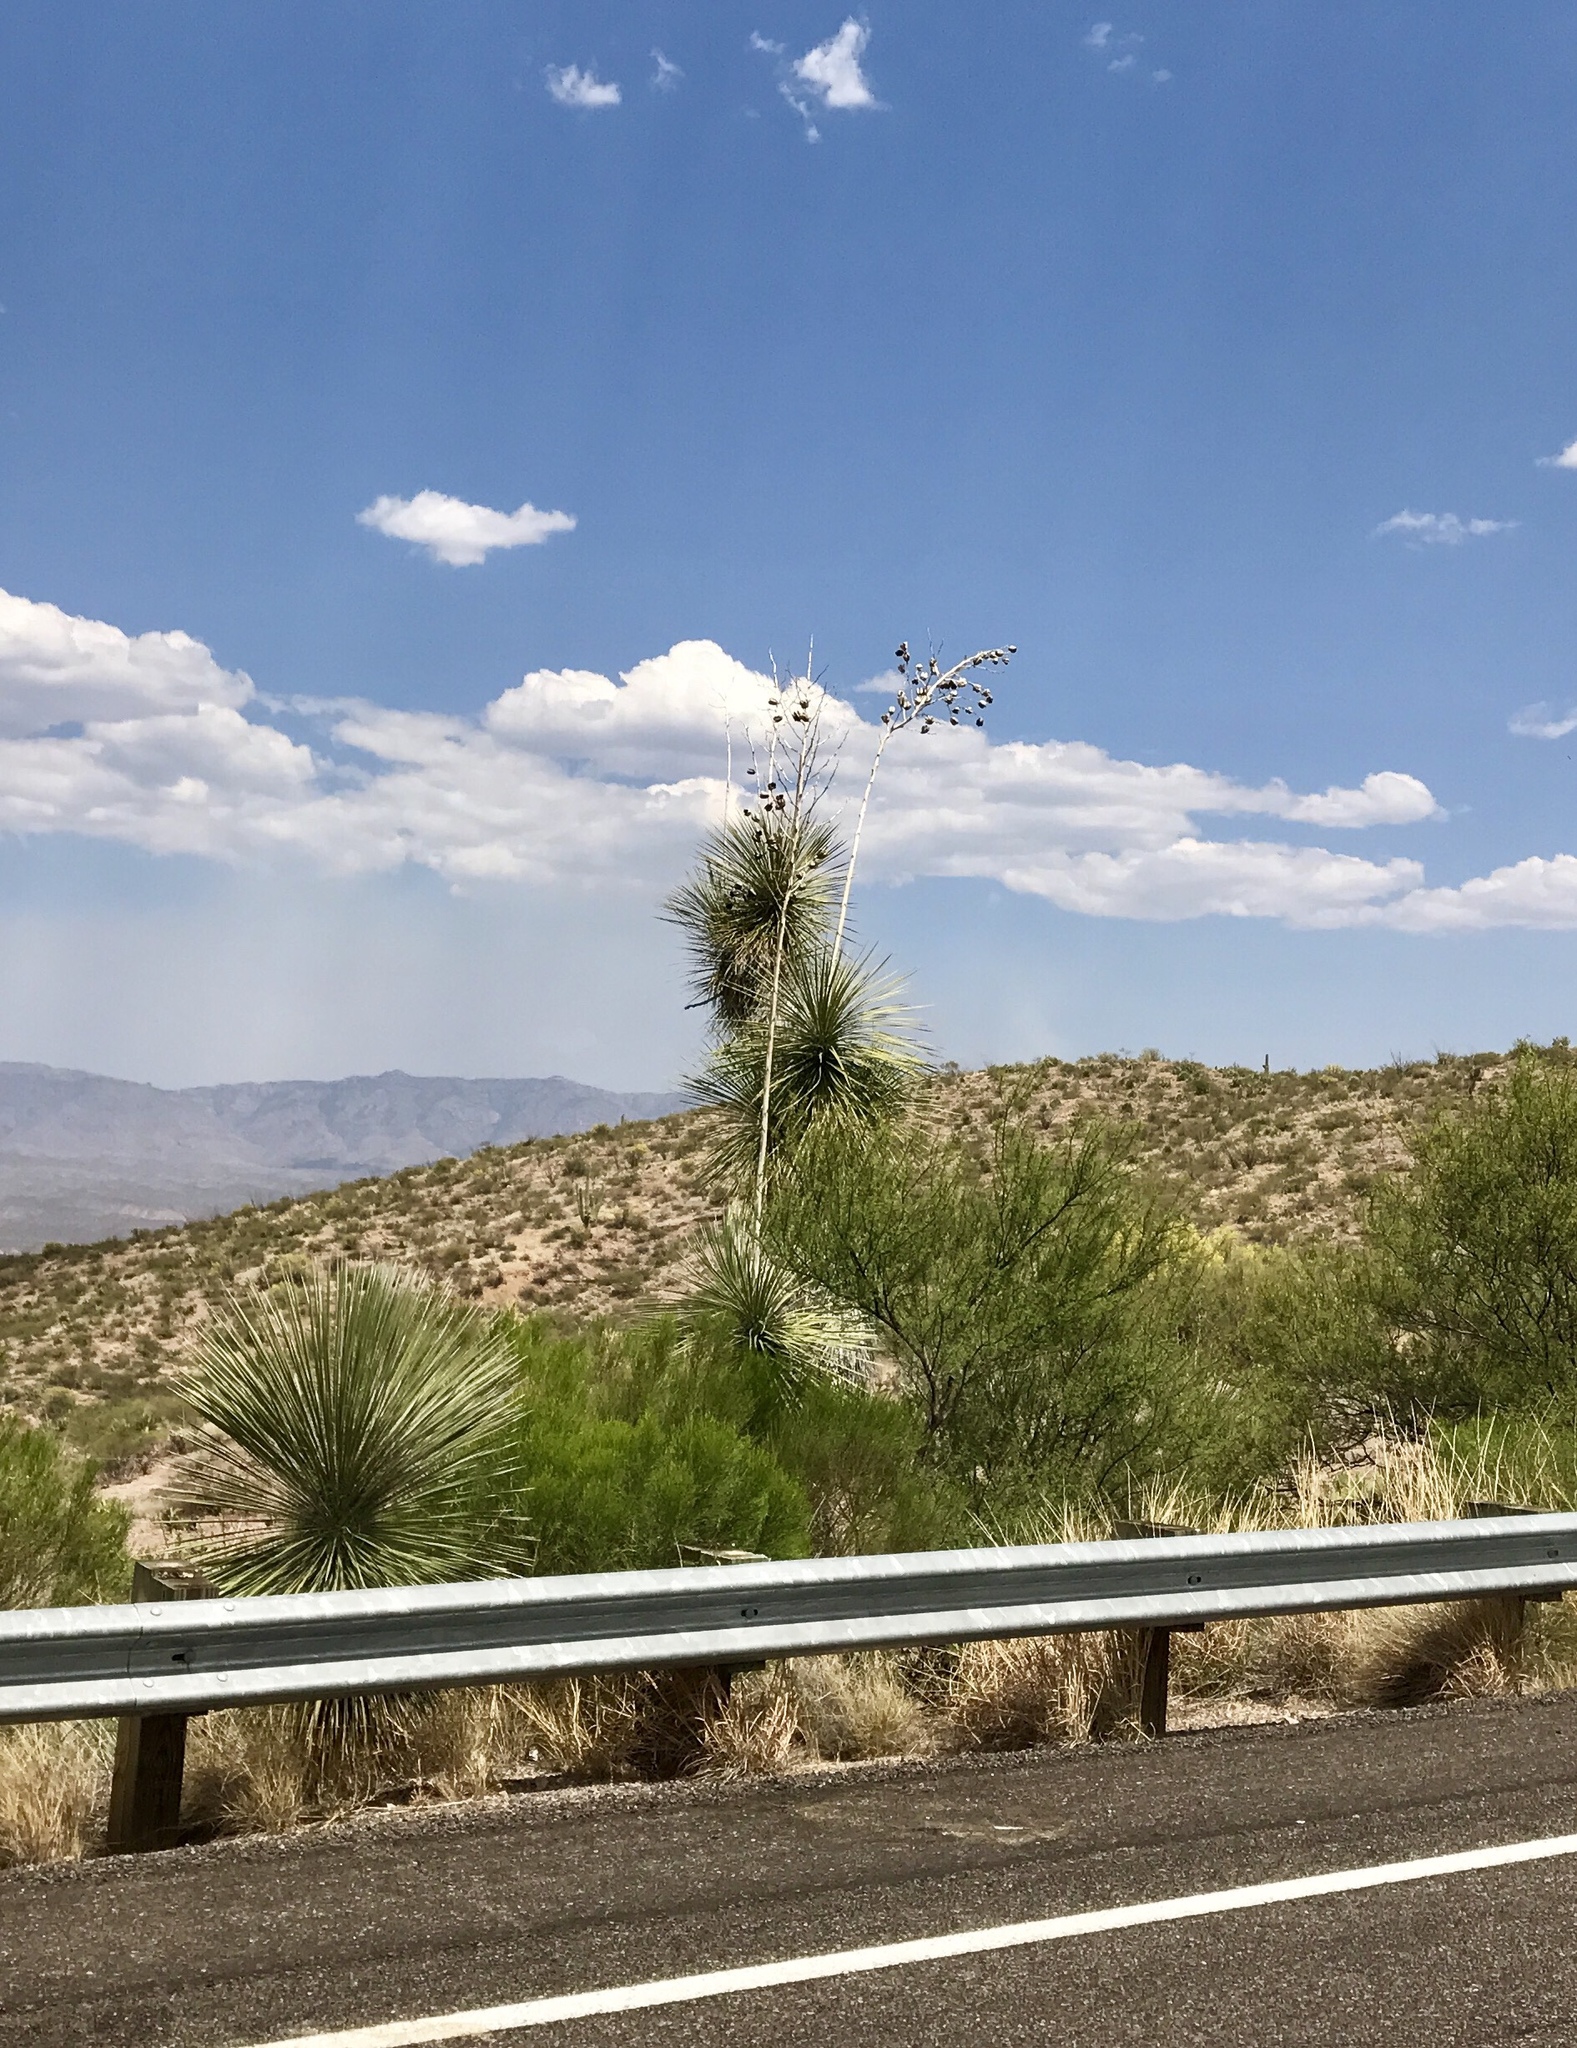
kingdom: Plantae
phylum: Tracheophyta
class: Liliopsida
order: Asparagales
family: Asparagaceae
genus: Yucca
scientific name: Yucca elata
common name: Palmella
